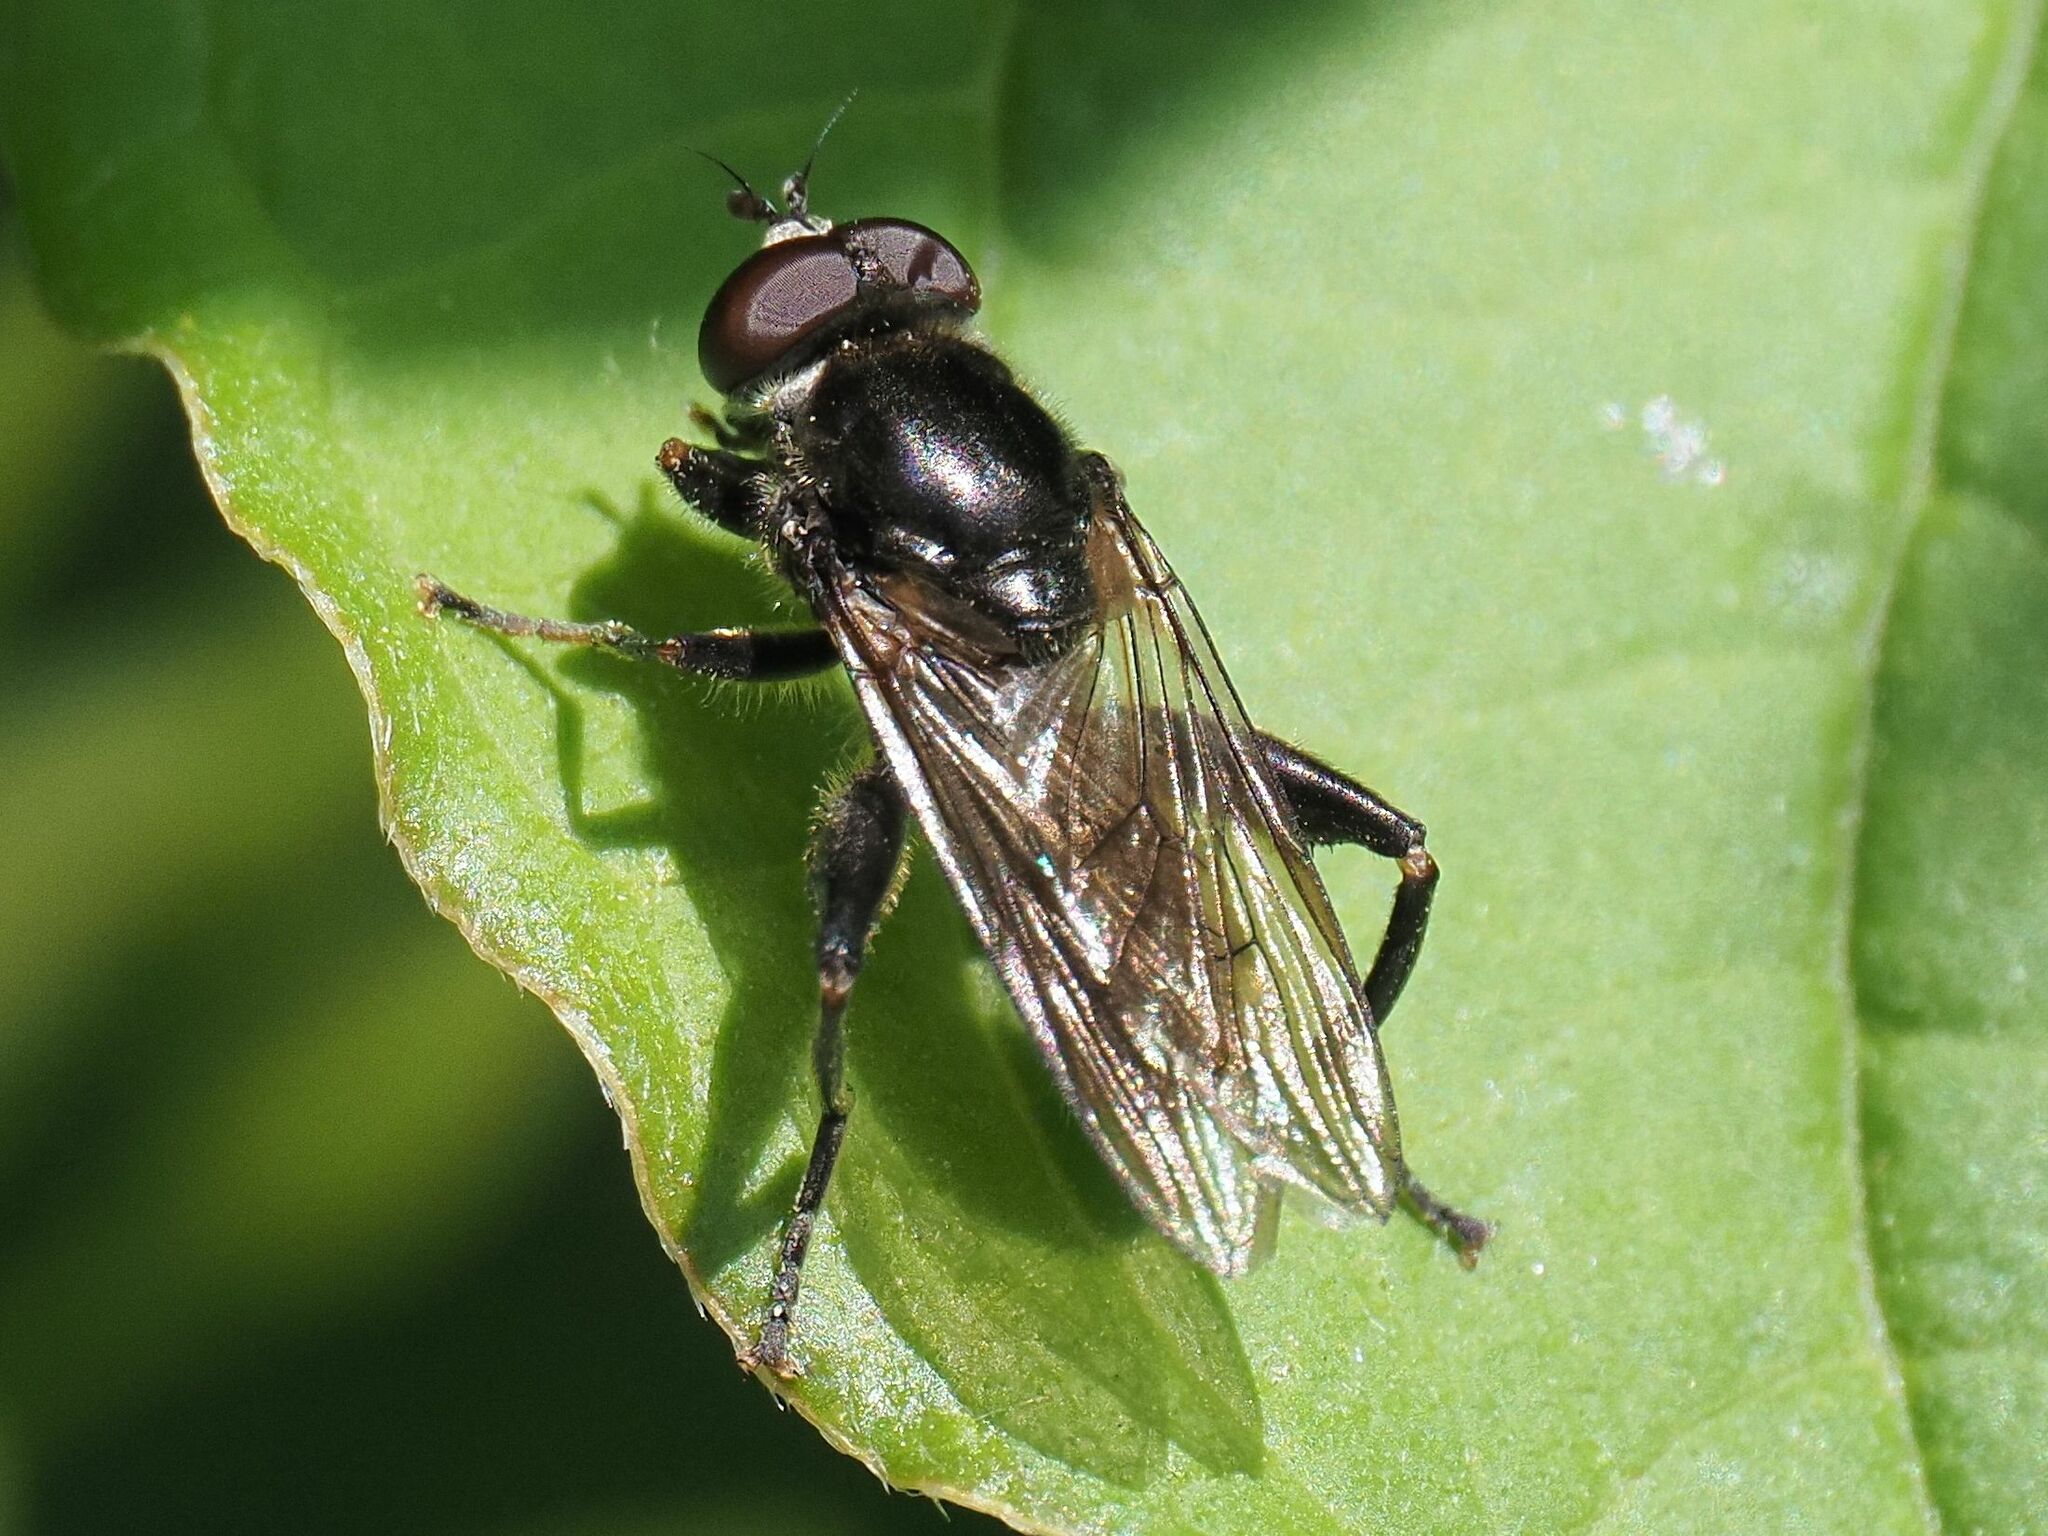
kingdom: Animalia
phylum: Arthropoda
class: Insecta
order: Diptera
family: Syrphidae
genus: Chalcosyrphus
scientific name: Chalcosyrphus nemorum
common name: Dusky-banded forest fly
